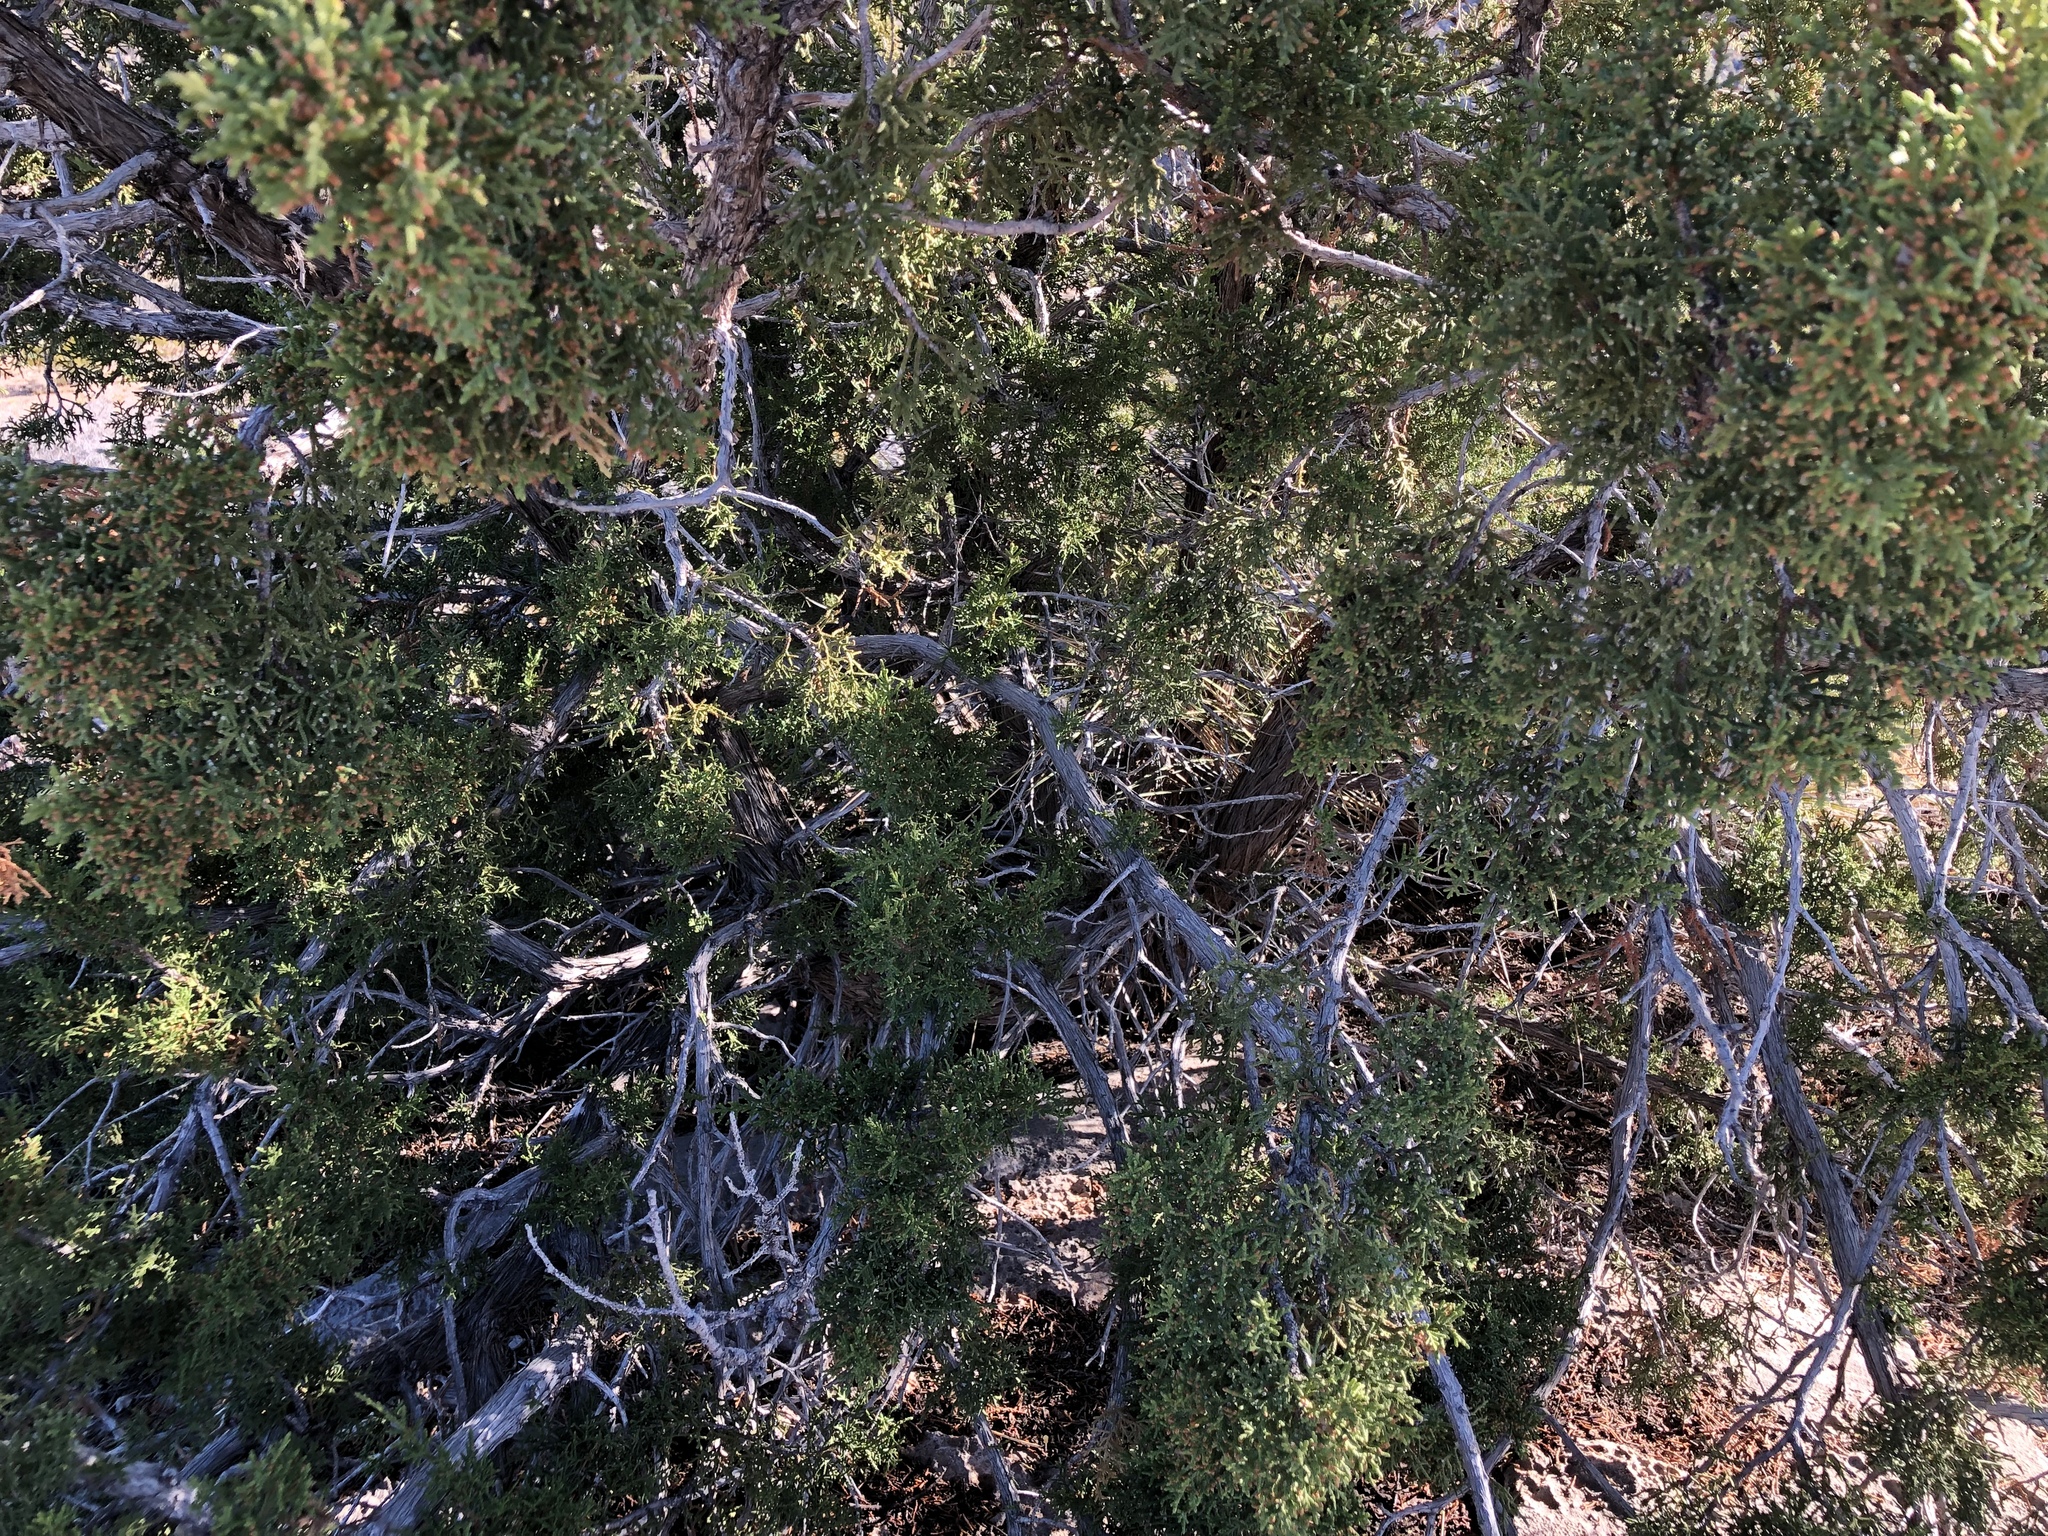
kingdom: Plantae
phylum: Tracheophyta
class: Pinopsida
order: Pinales
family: Cupressaceae
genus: Juniperus
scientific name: Juniperus monosperma
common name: One-seed juniper
